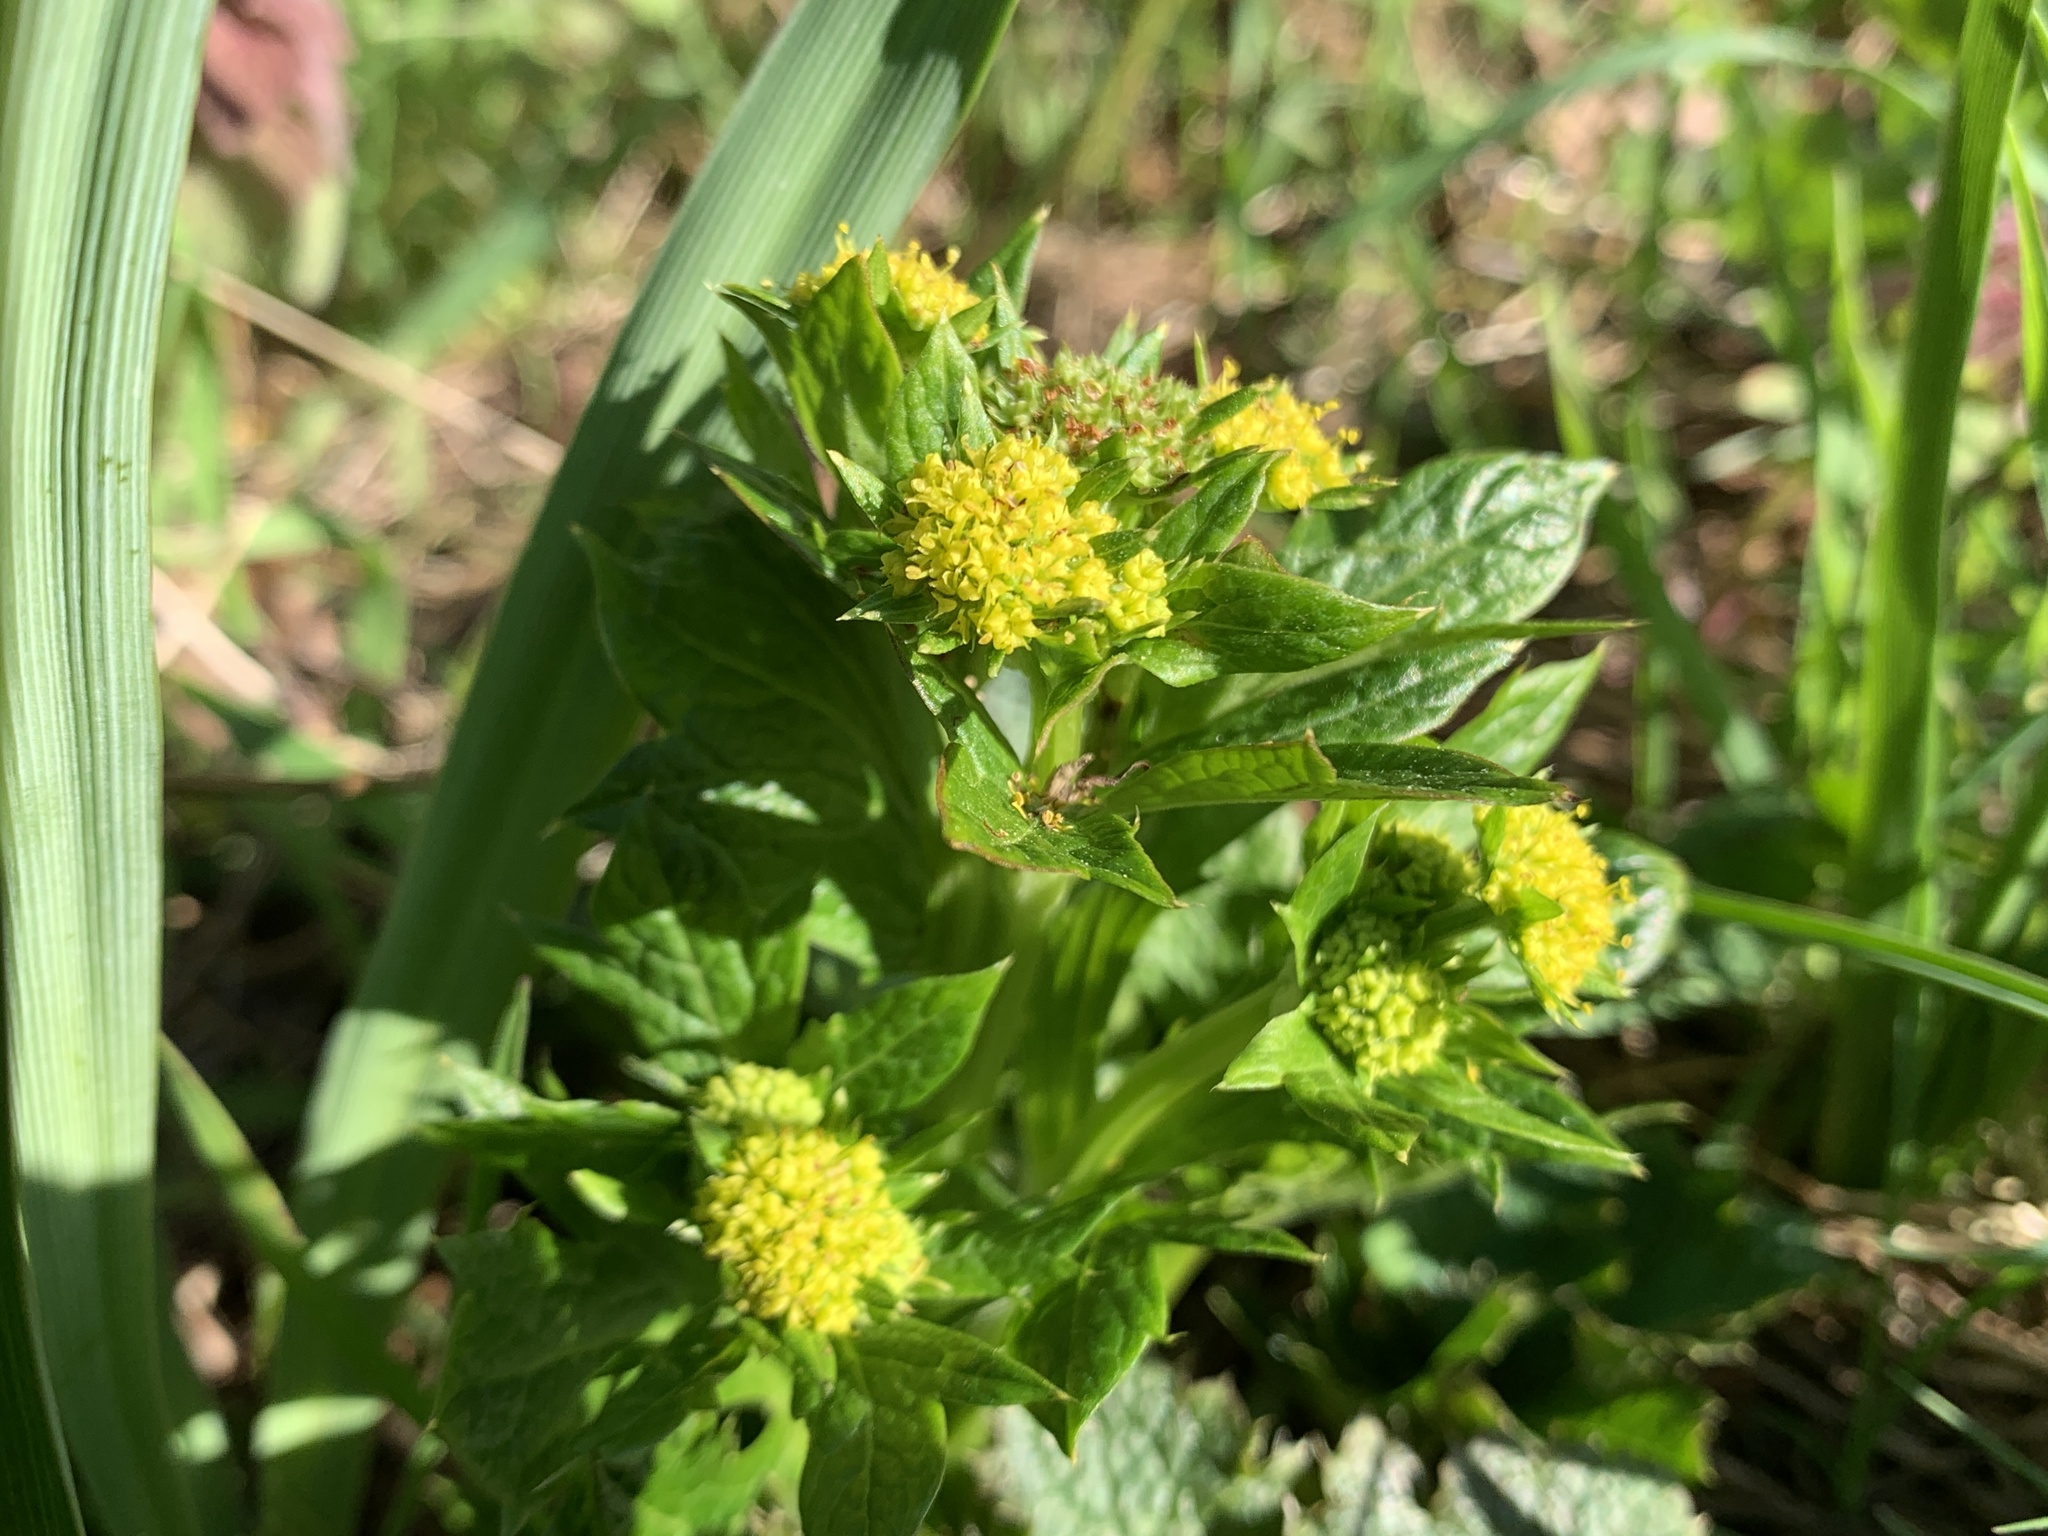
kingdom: Plantae
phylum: Tracheophyta
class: Magnoliopsida
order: Apiales
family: Apiaceae
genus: Sanicula
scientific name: Sanicula crassicaulis
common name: Western snakeroot
